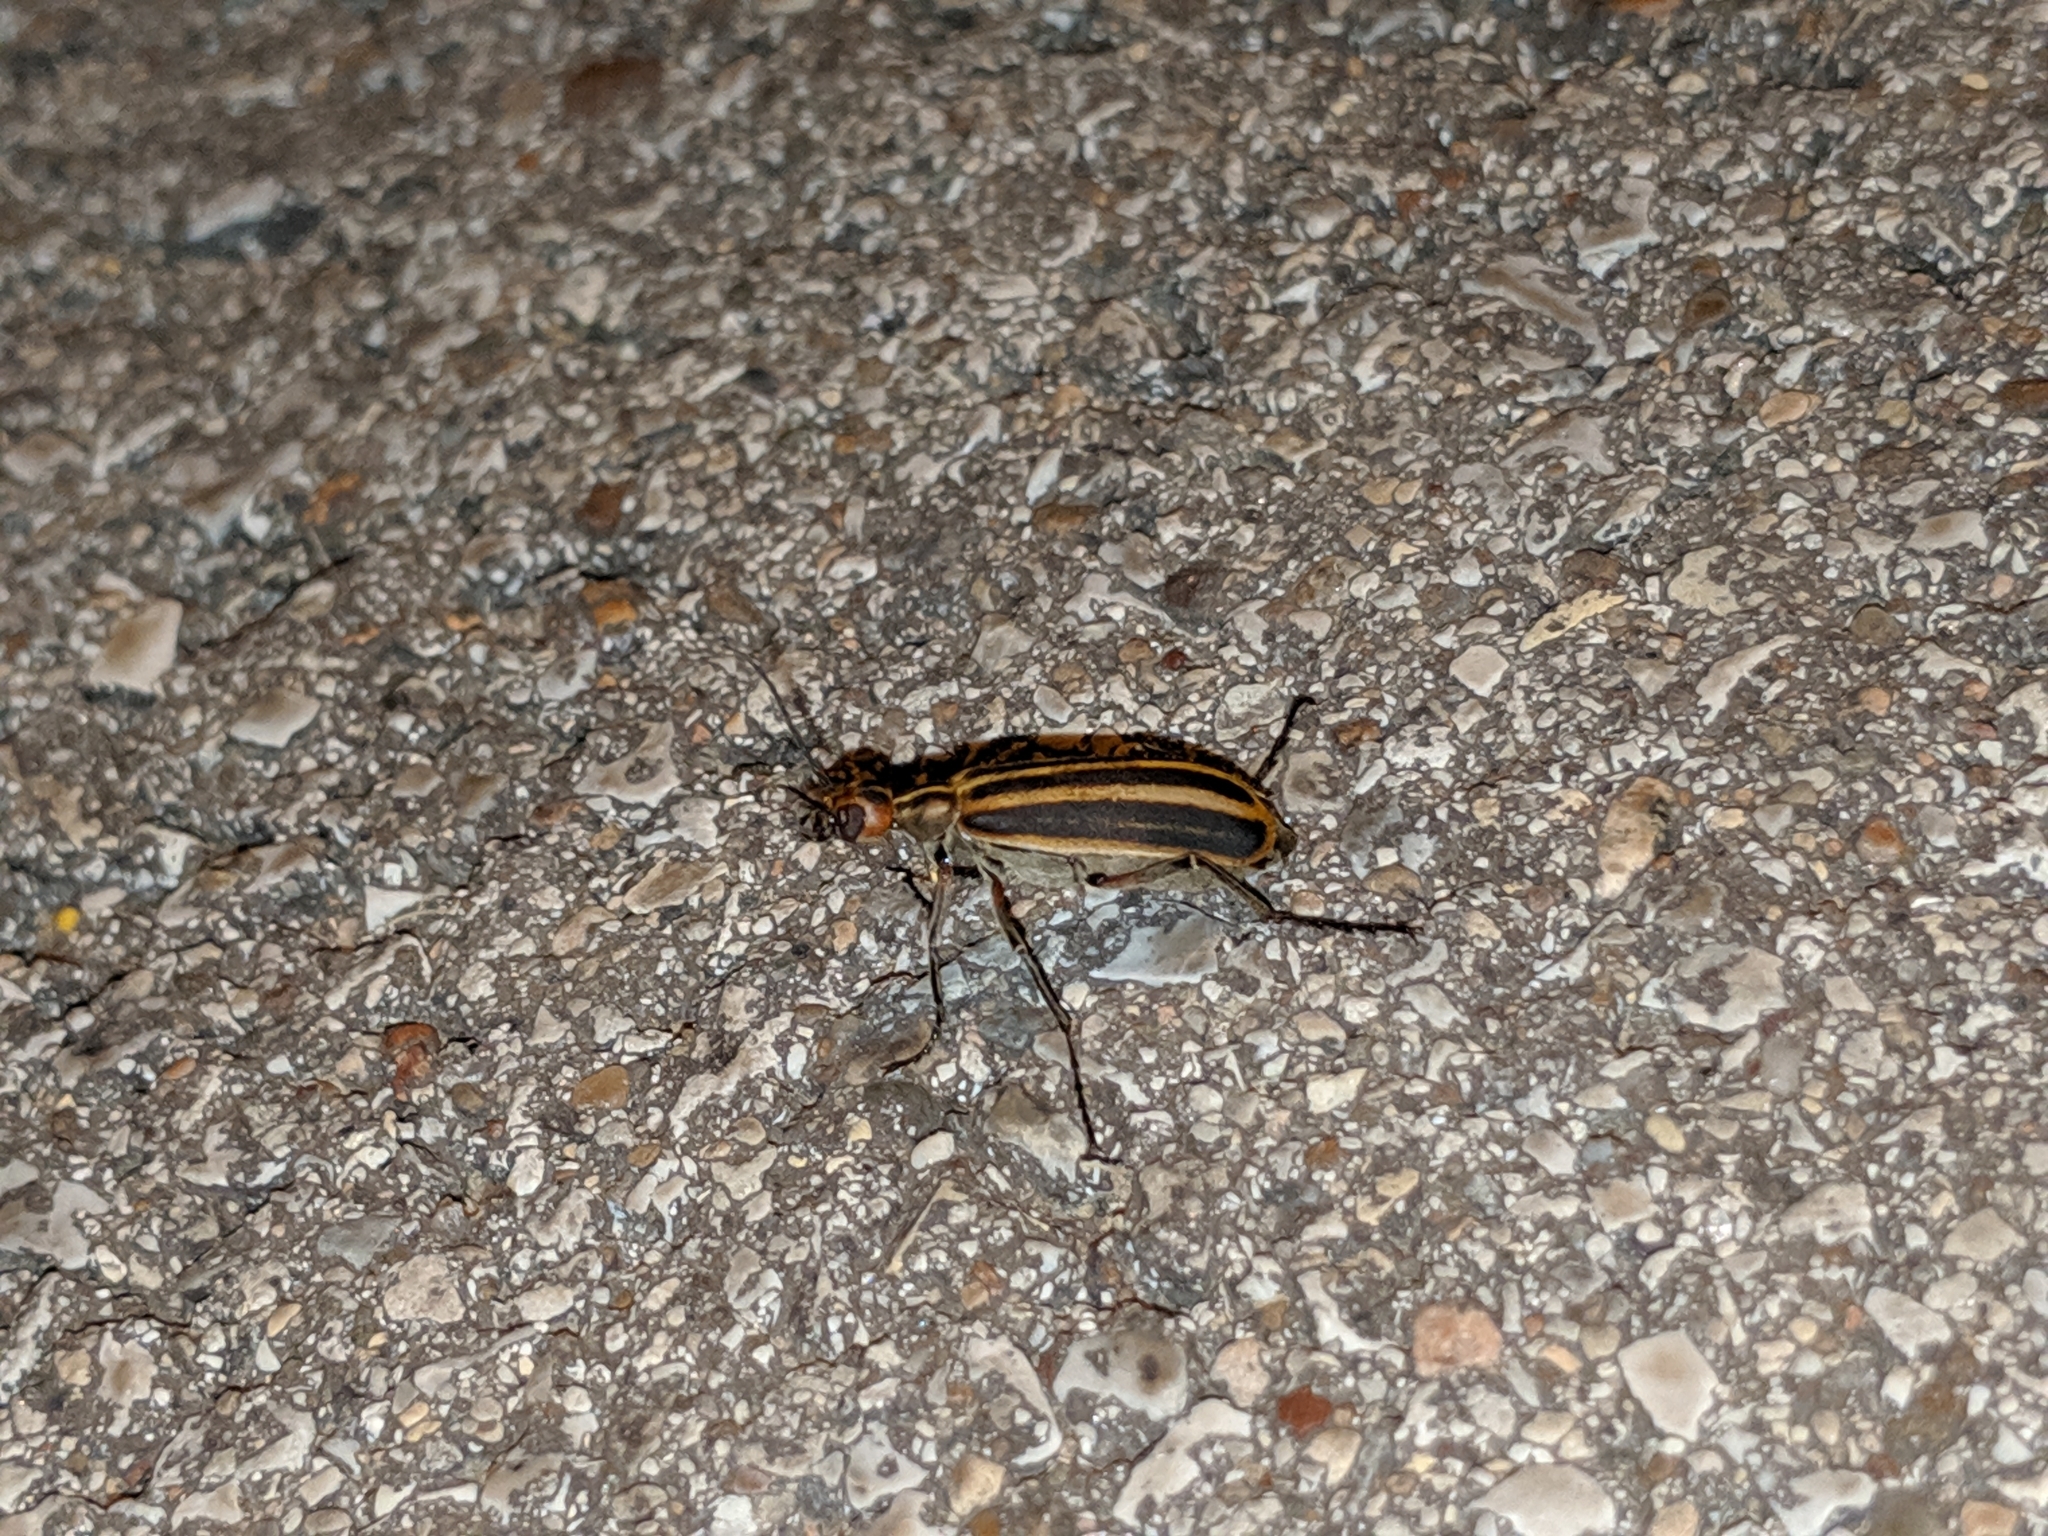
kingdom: Animalia
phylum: Arthropoda
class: Insecta
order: Coleoptera
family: Meloidae
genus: Epicauta
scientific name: Epicauta vittata
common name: Old-fashioned potato beetle
